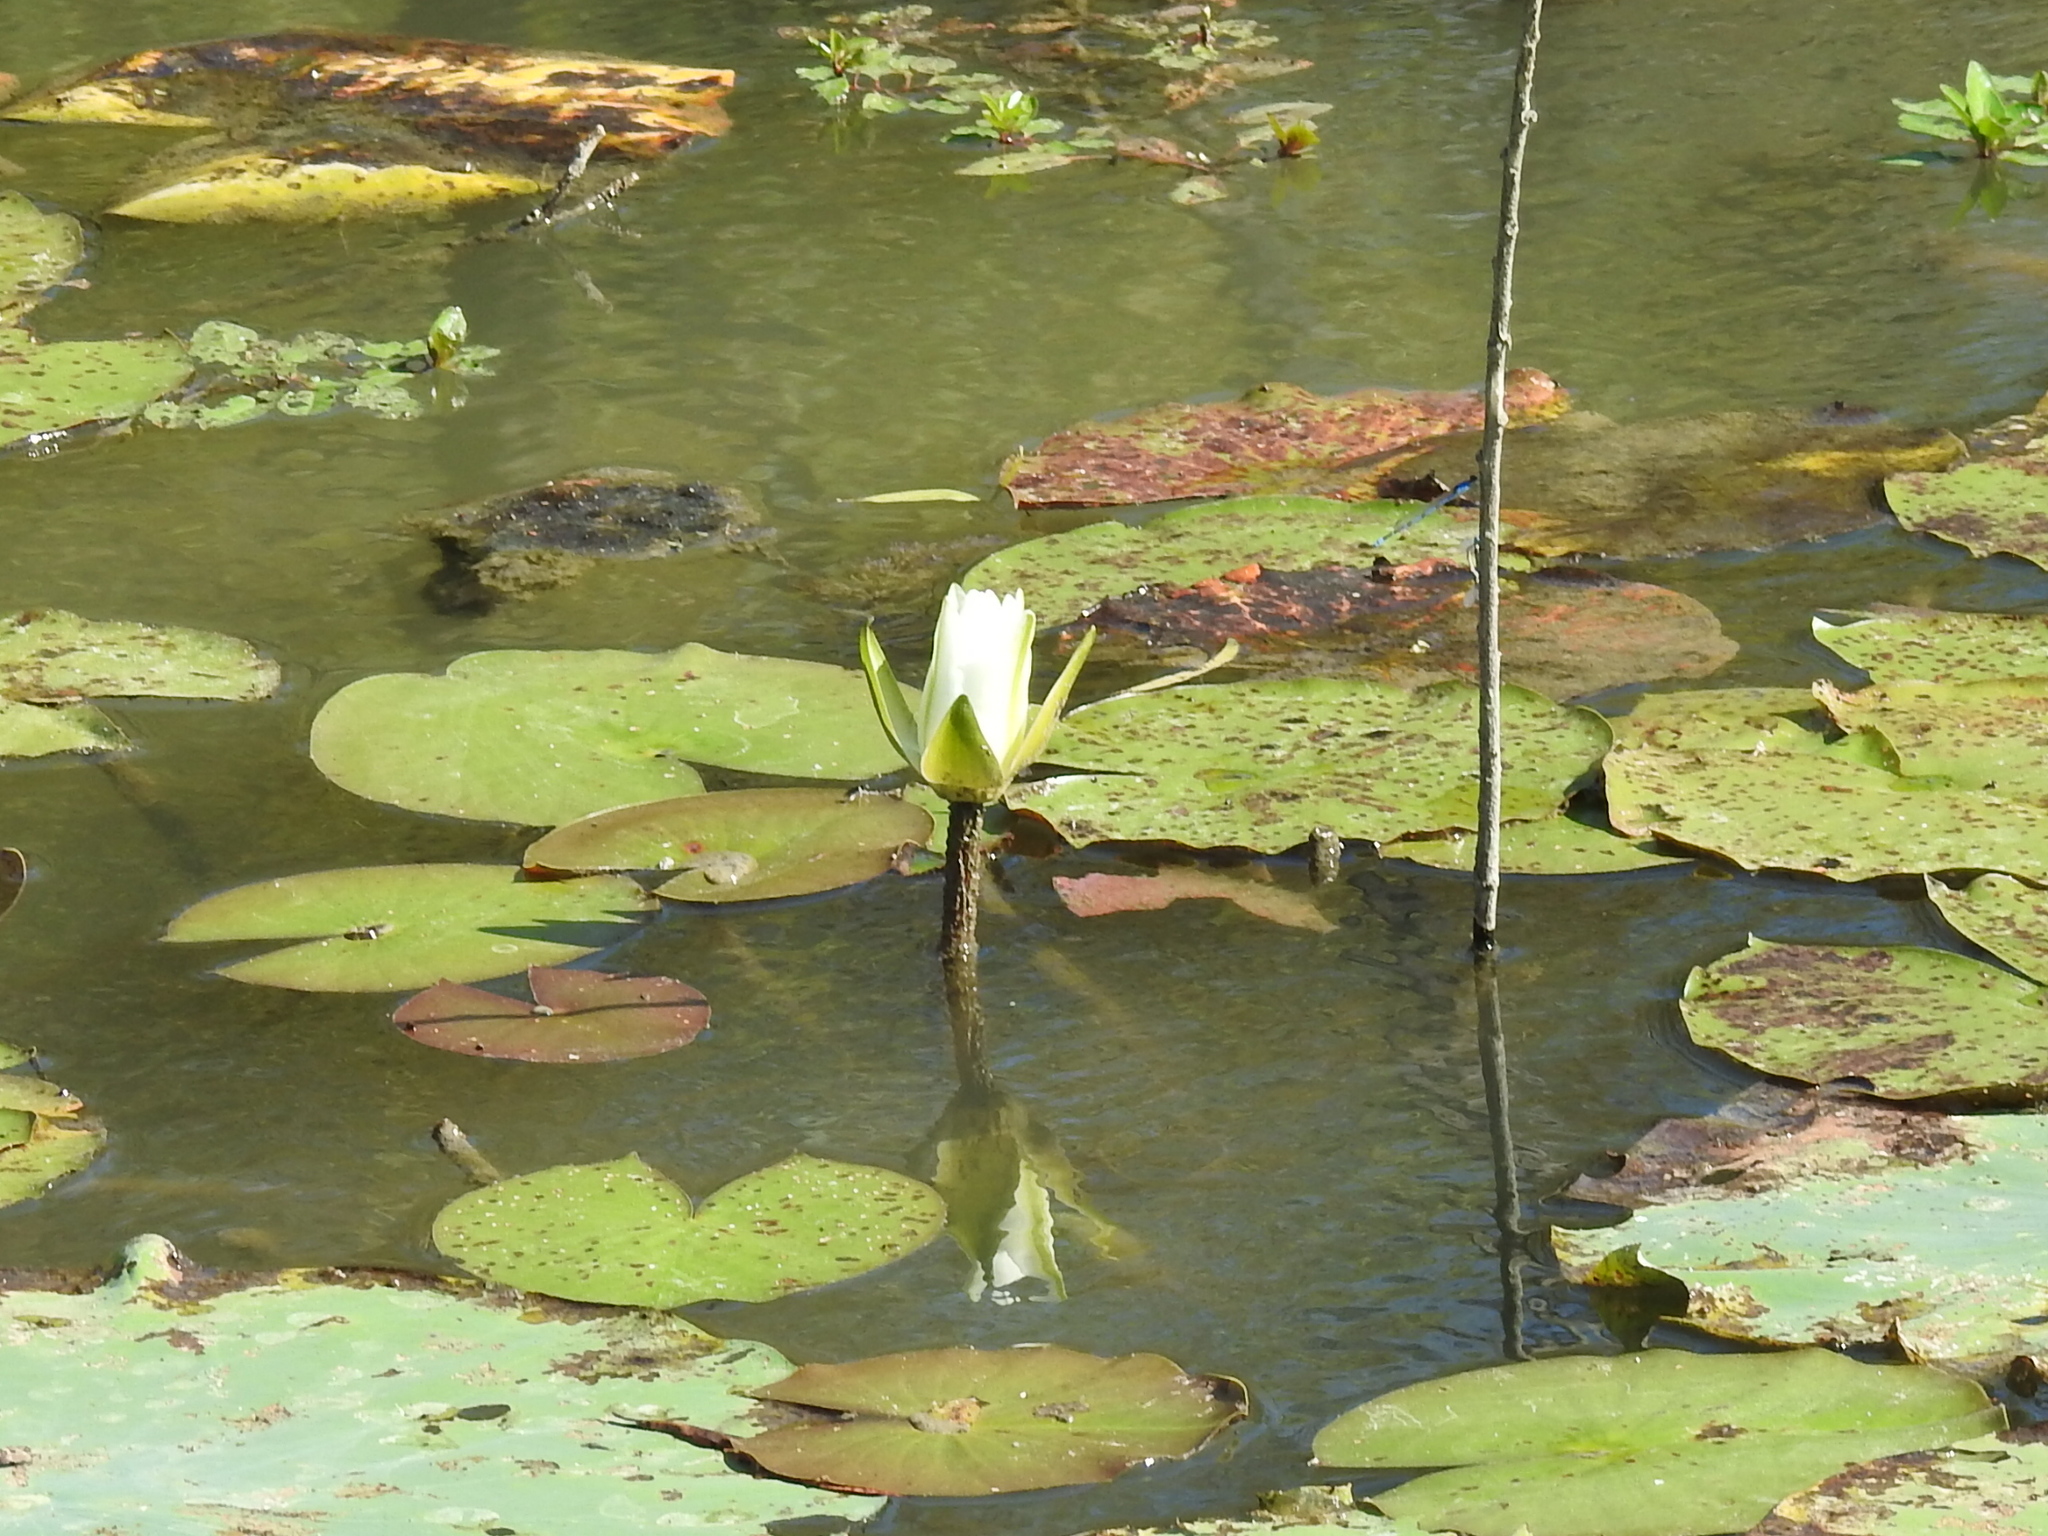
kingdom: Plantae
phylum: Tracheophyta
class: Magnoliopsida
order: Nymphaeales
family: Nymphaeaceae
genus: Nymphaea
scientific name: Nymphaea odorata
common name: Fragrant water-lily
